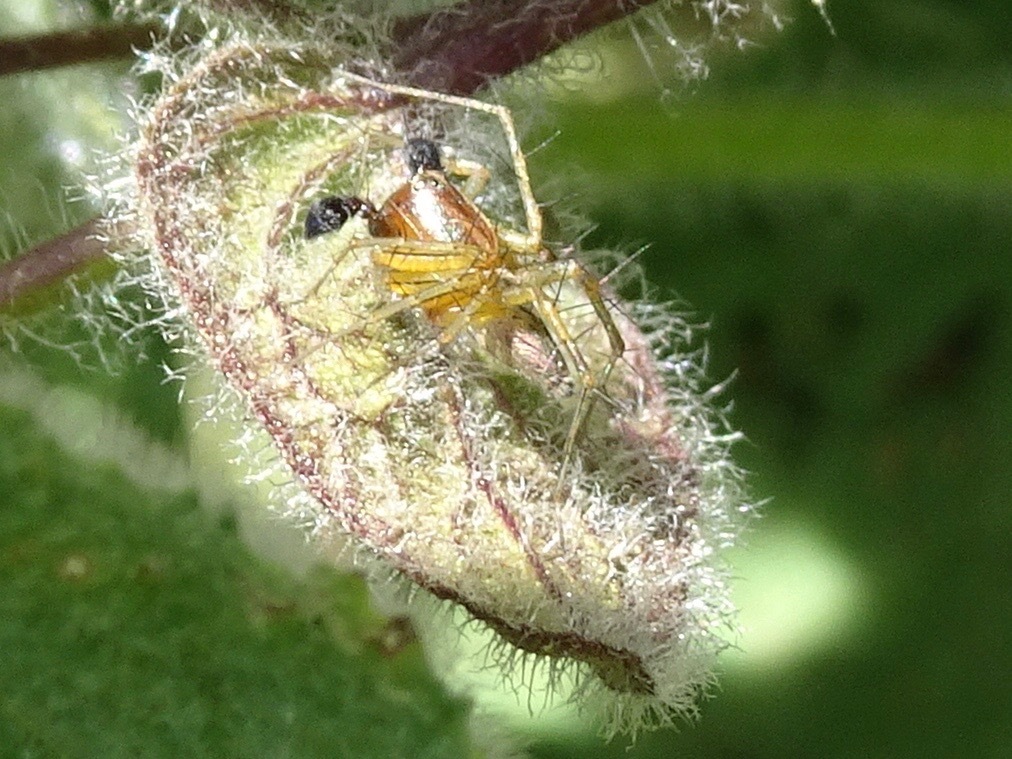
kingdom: Animalia
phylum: Arthropoda
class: Arachnida
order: Araneae
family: Oxyopidae
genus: Oxyopes
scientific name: Oxyopes salticus
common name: Lynx spiders
